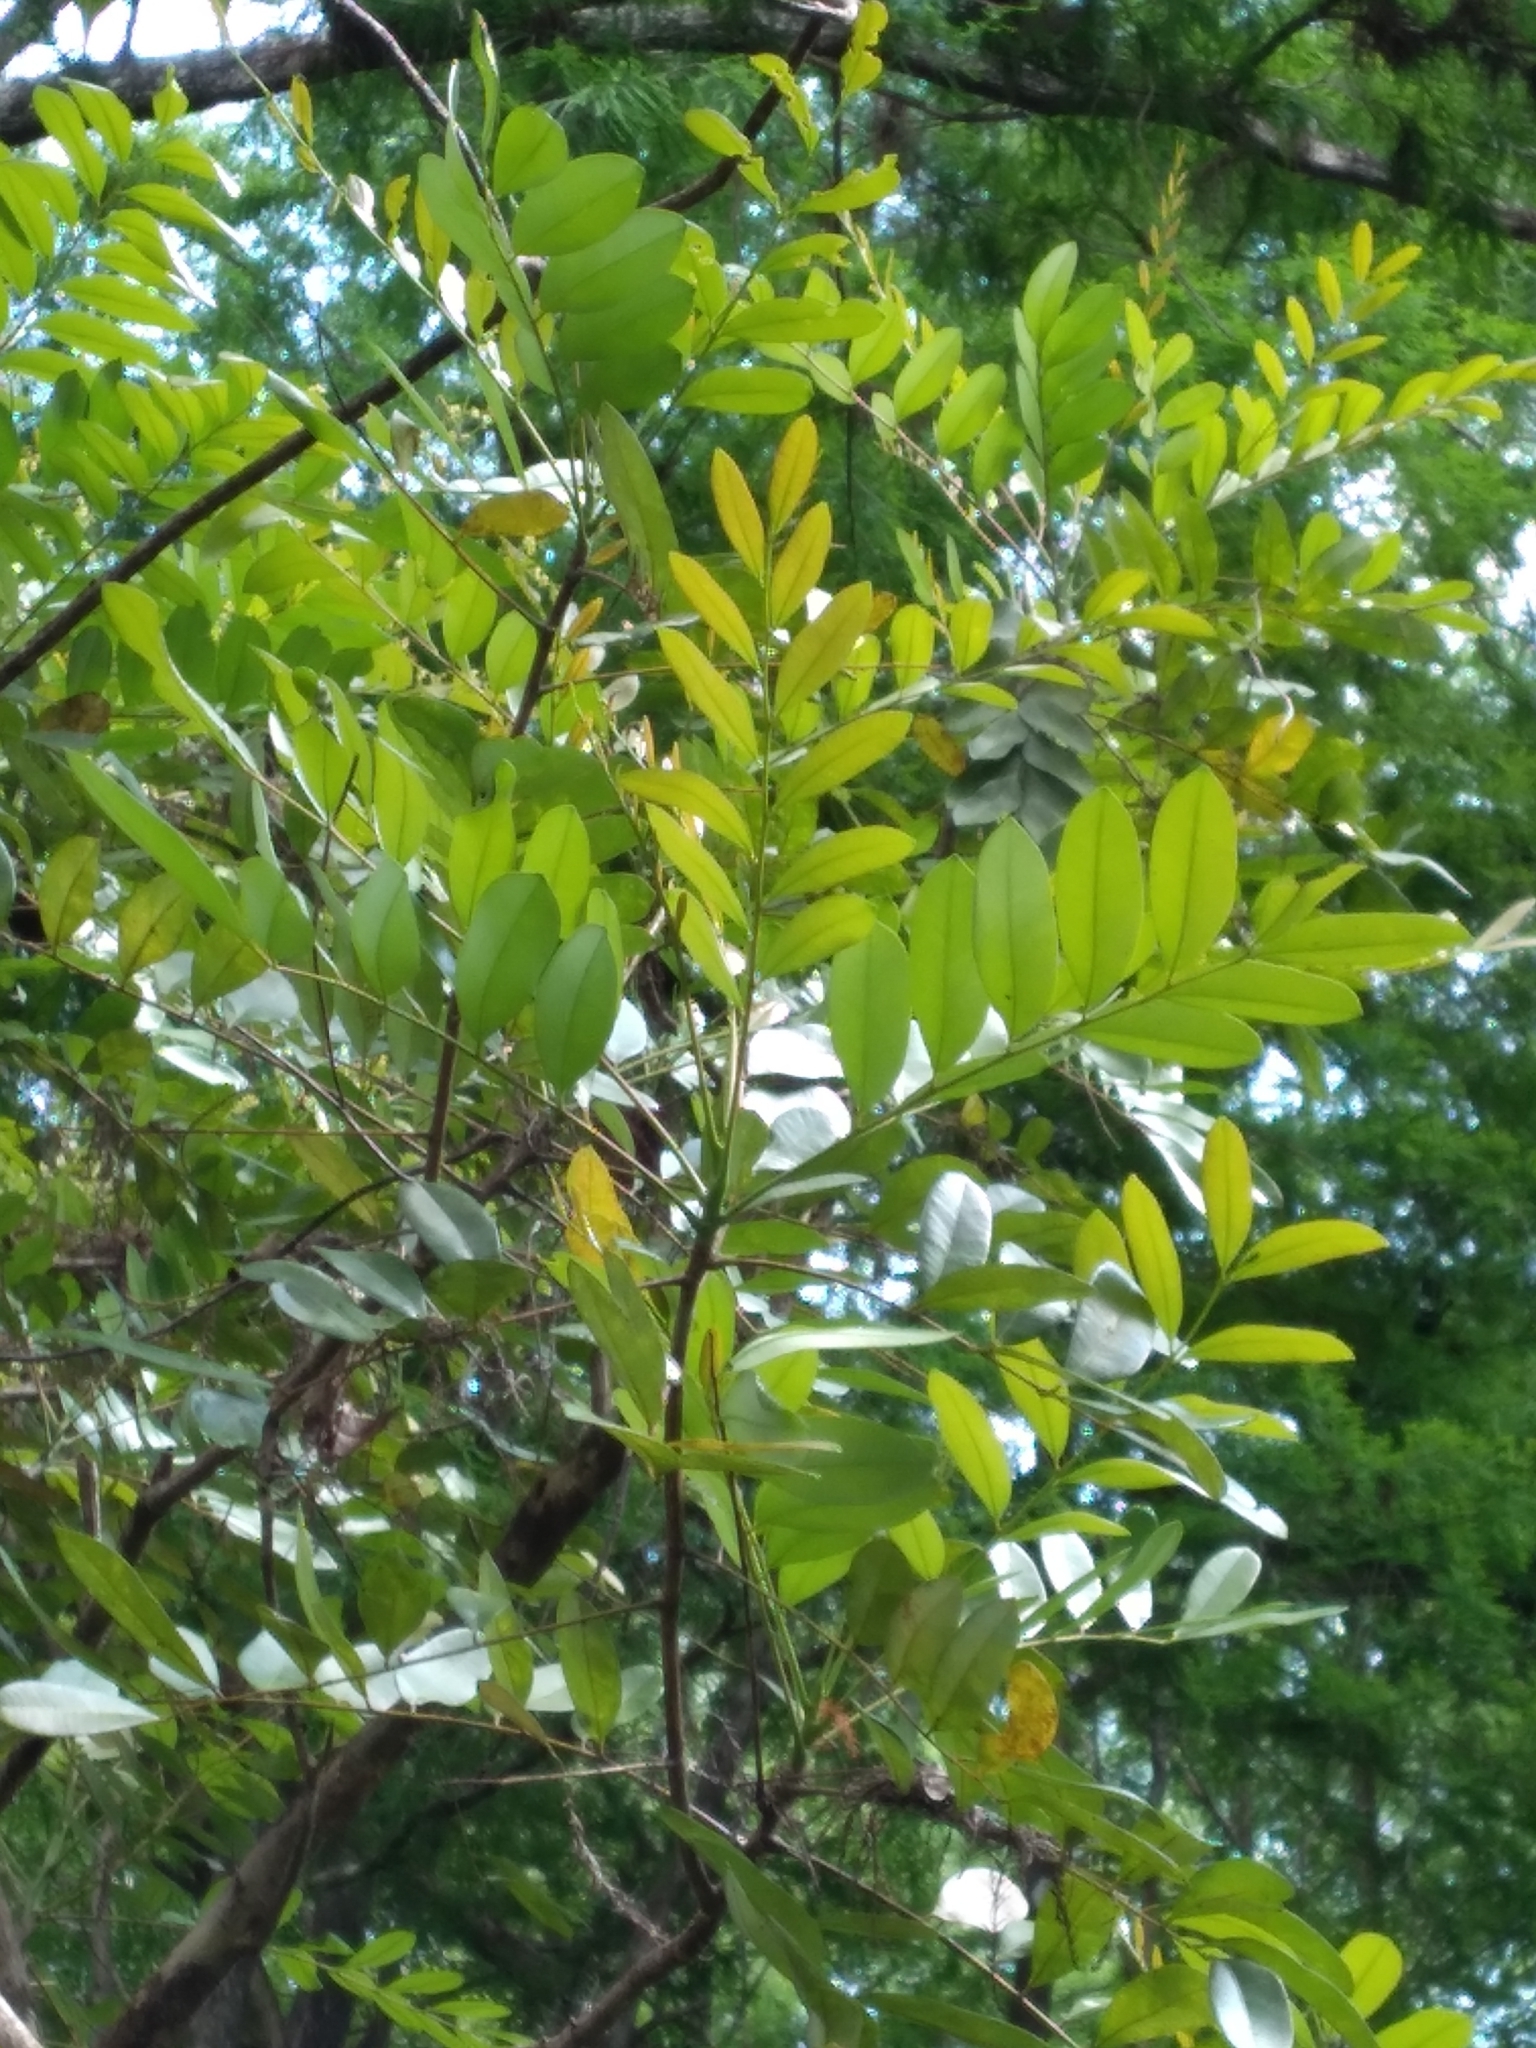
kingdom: Plantae
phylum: Tracheophyta
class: Magnoliopsida
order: Sapindales
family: Simaroubaceae
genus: Simarouba
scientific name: Simarouba glauca
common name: Dysentery-bark
